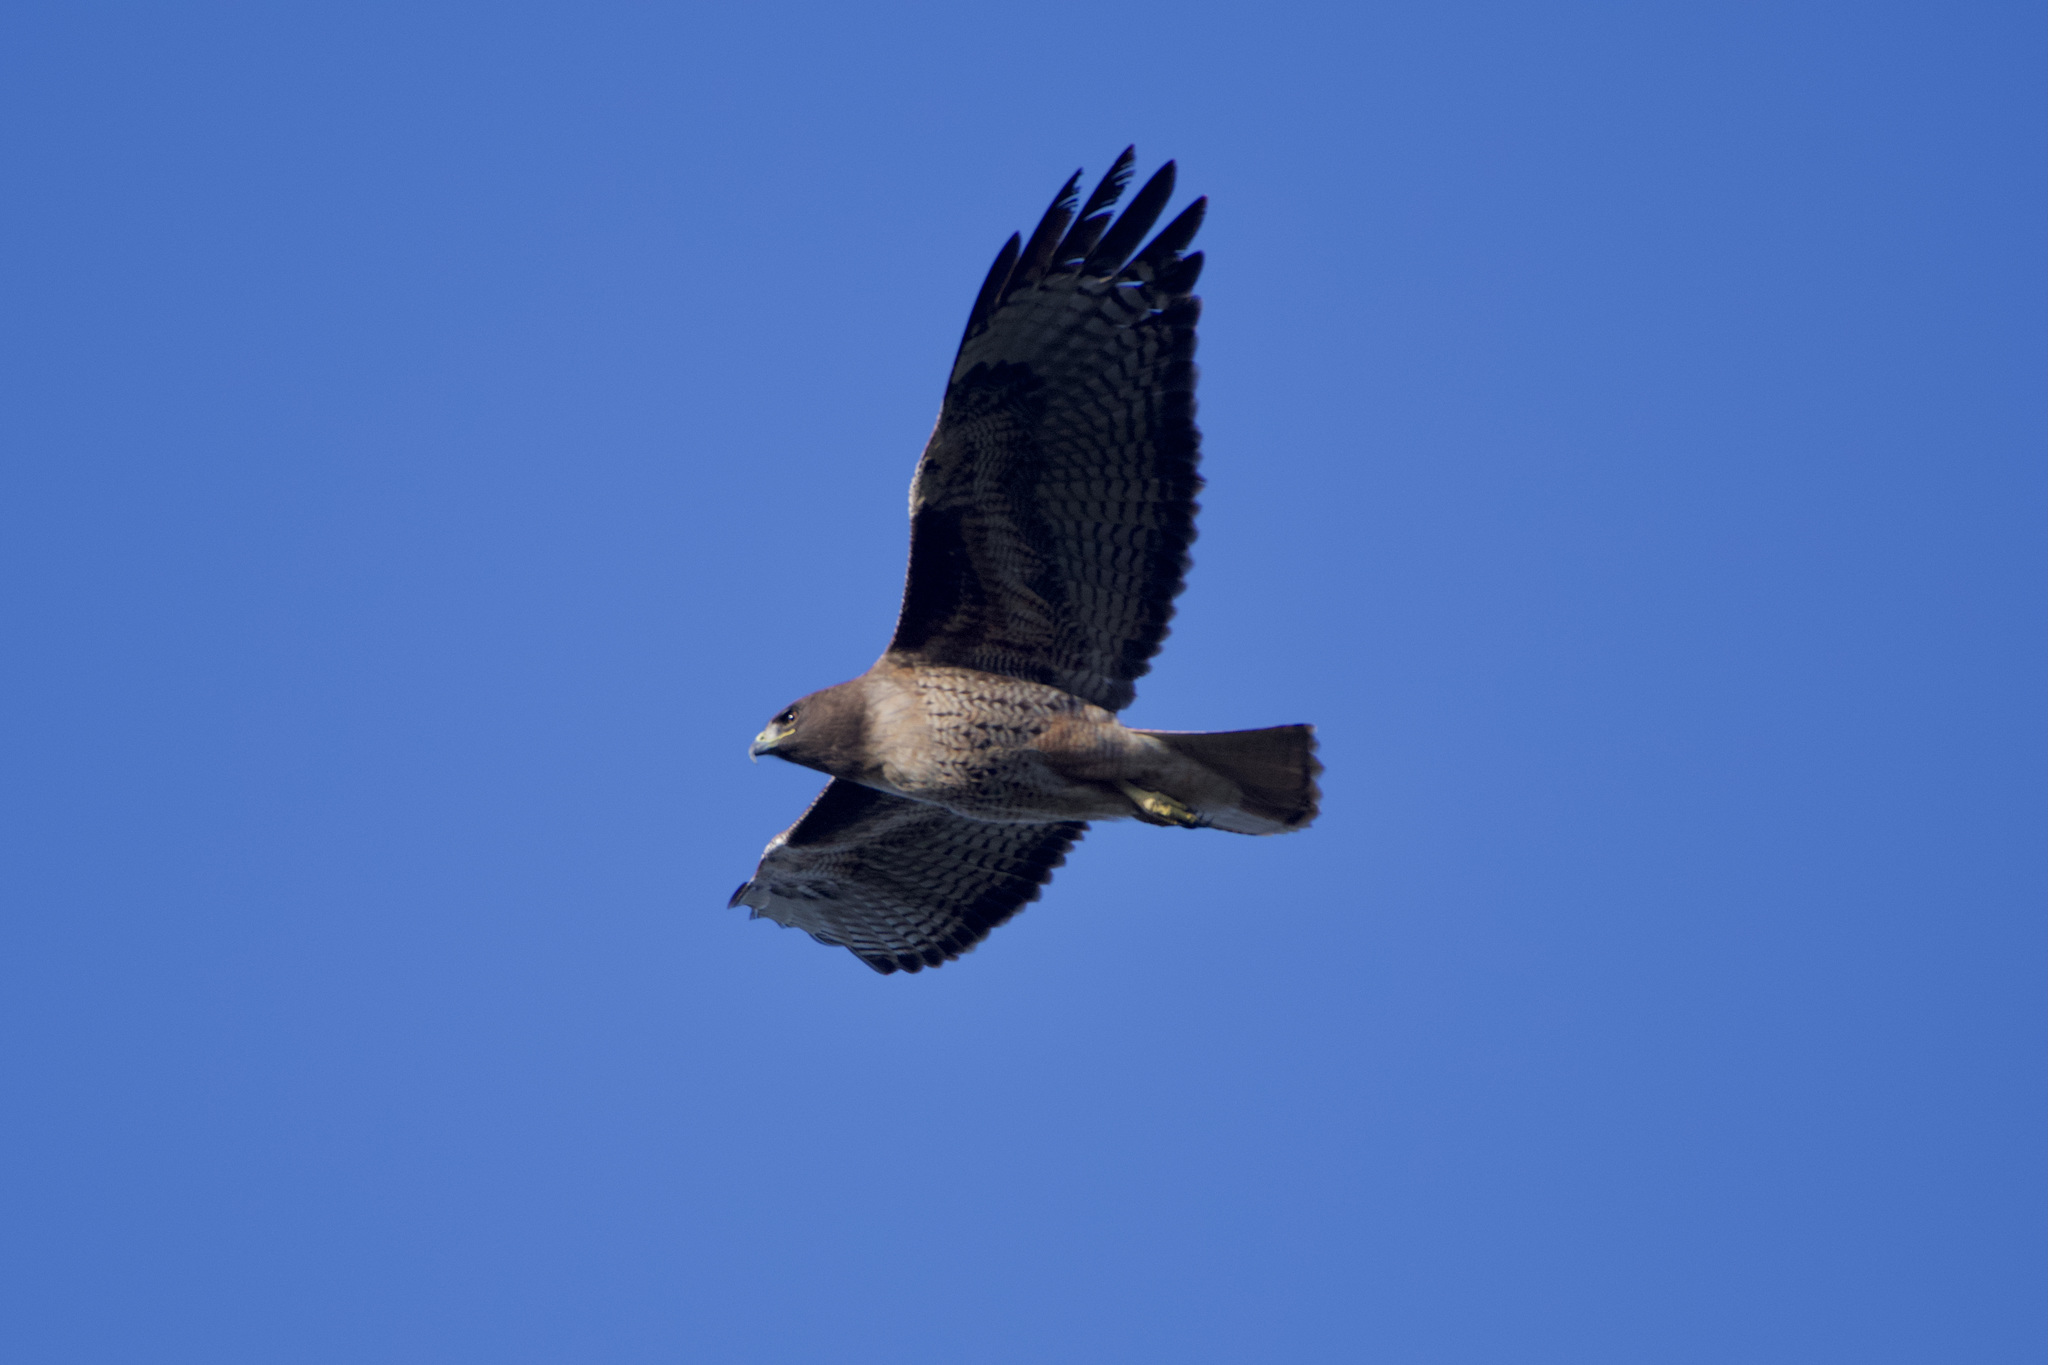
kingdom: Animalia
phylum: Chordata
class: Aves
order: Accipitriformes
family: Accipitridae
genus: Buteo
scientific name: Buteo jamaicensis
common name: Red-tailed hawk
